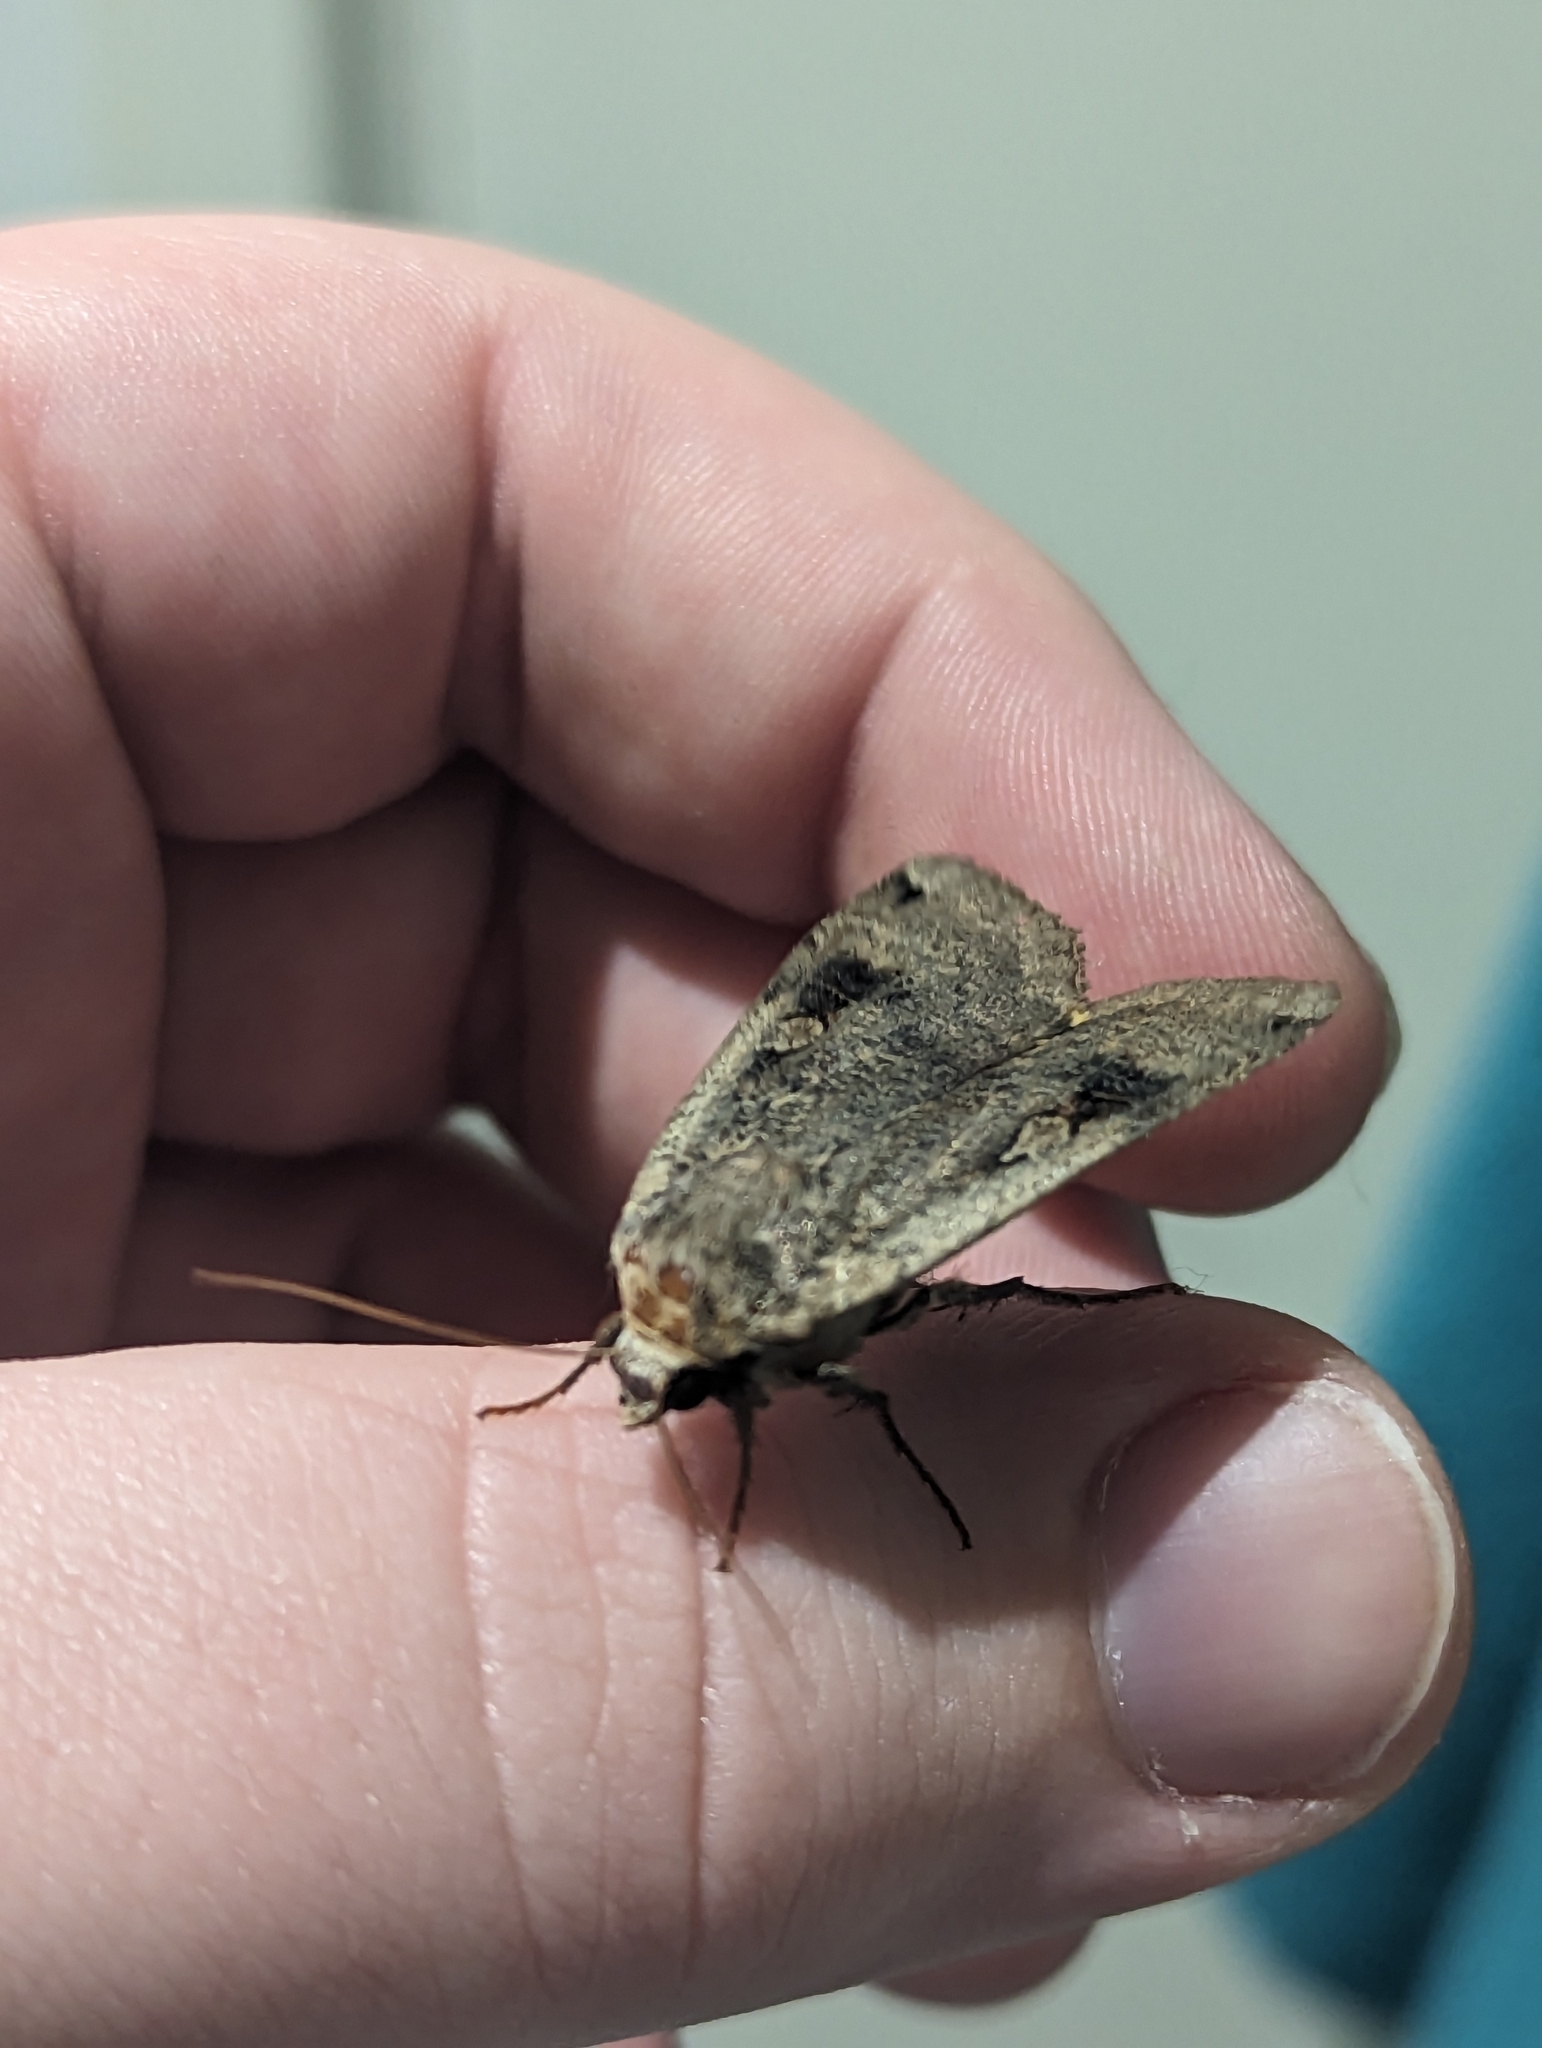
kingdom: Animalia
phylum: Arthropoda
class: Insecta
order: Lepidoptera
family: Noctuidae
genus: Noctua
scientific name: Noctua pronuba
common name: Large yellow underwing
